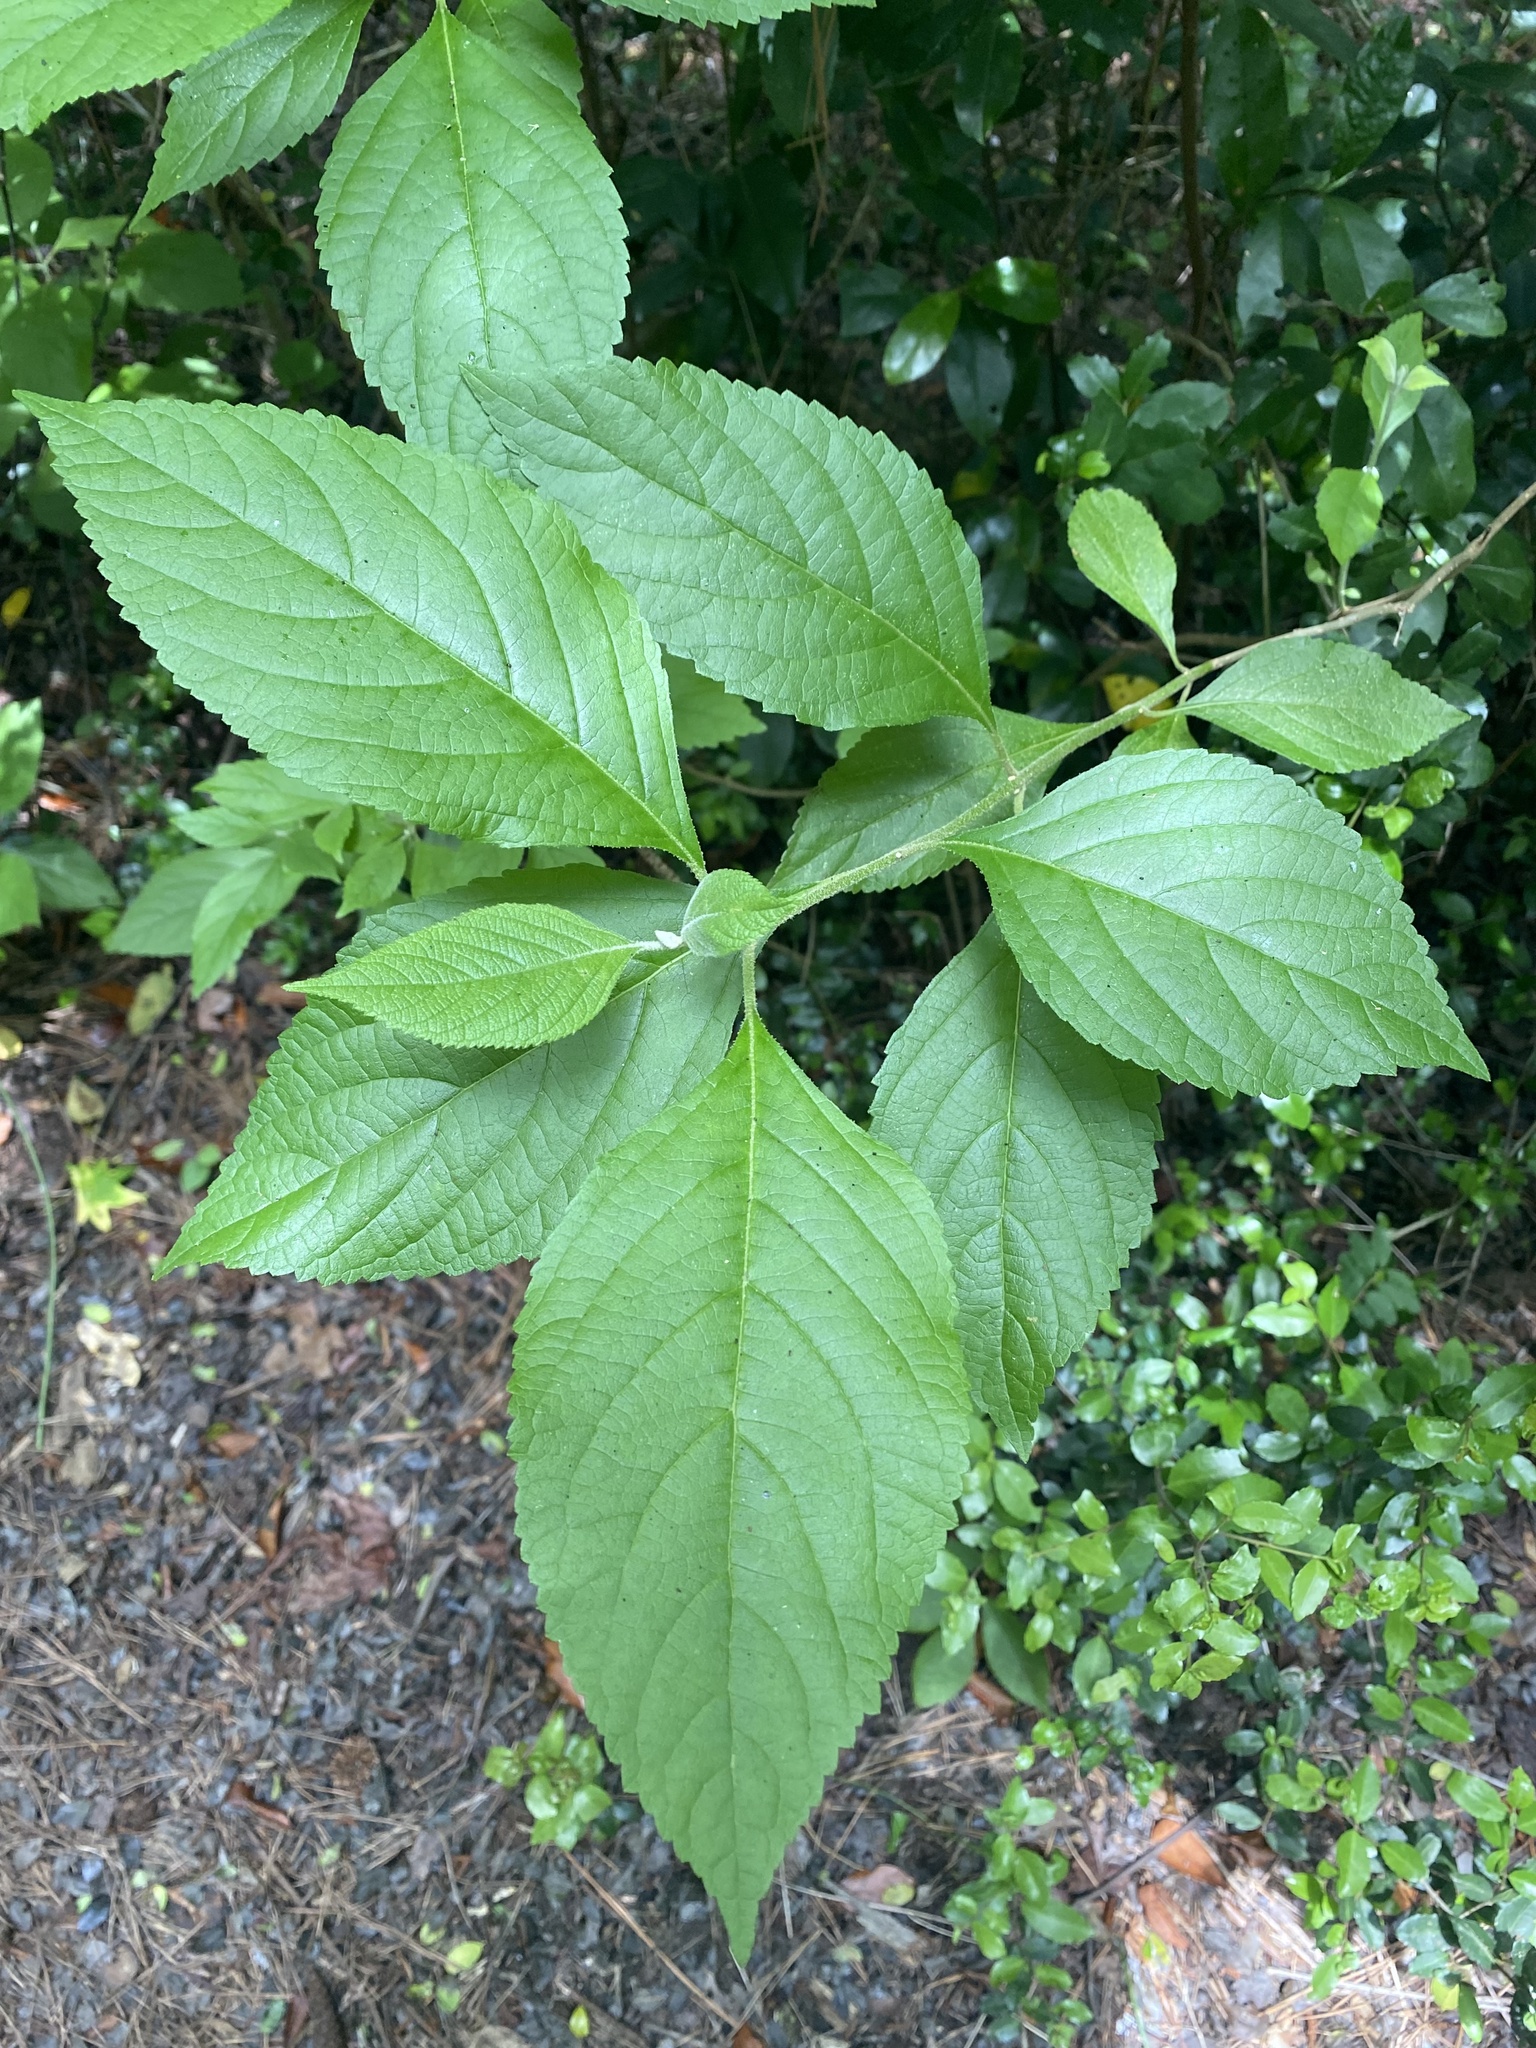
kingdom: Plantae
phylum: Tracheophyta
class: Magnoliopsida
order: Lamiales
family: Lamiaceae
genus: Callicarpa
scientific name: Callicarpa americana
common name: American beautyberry
